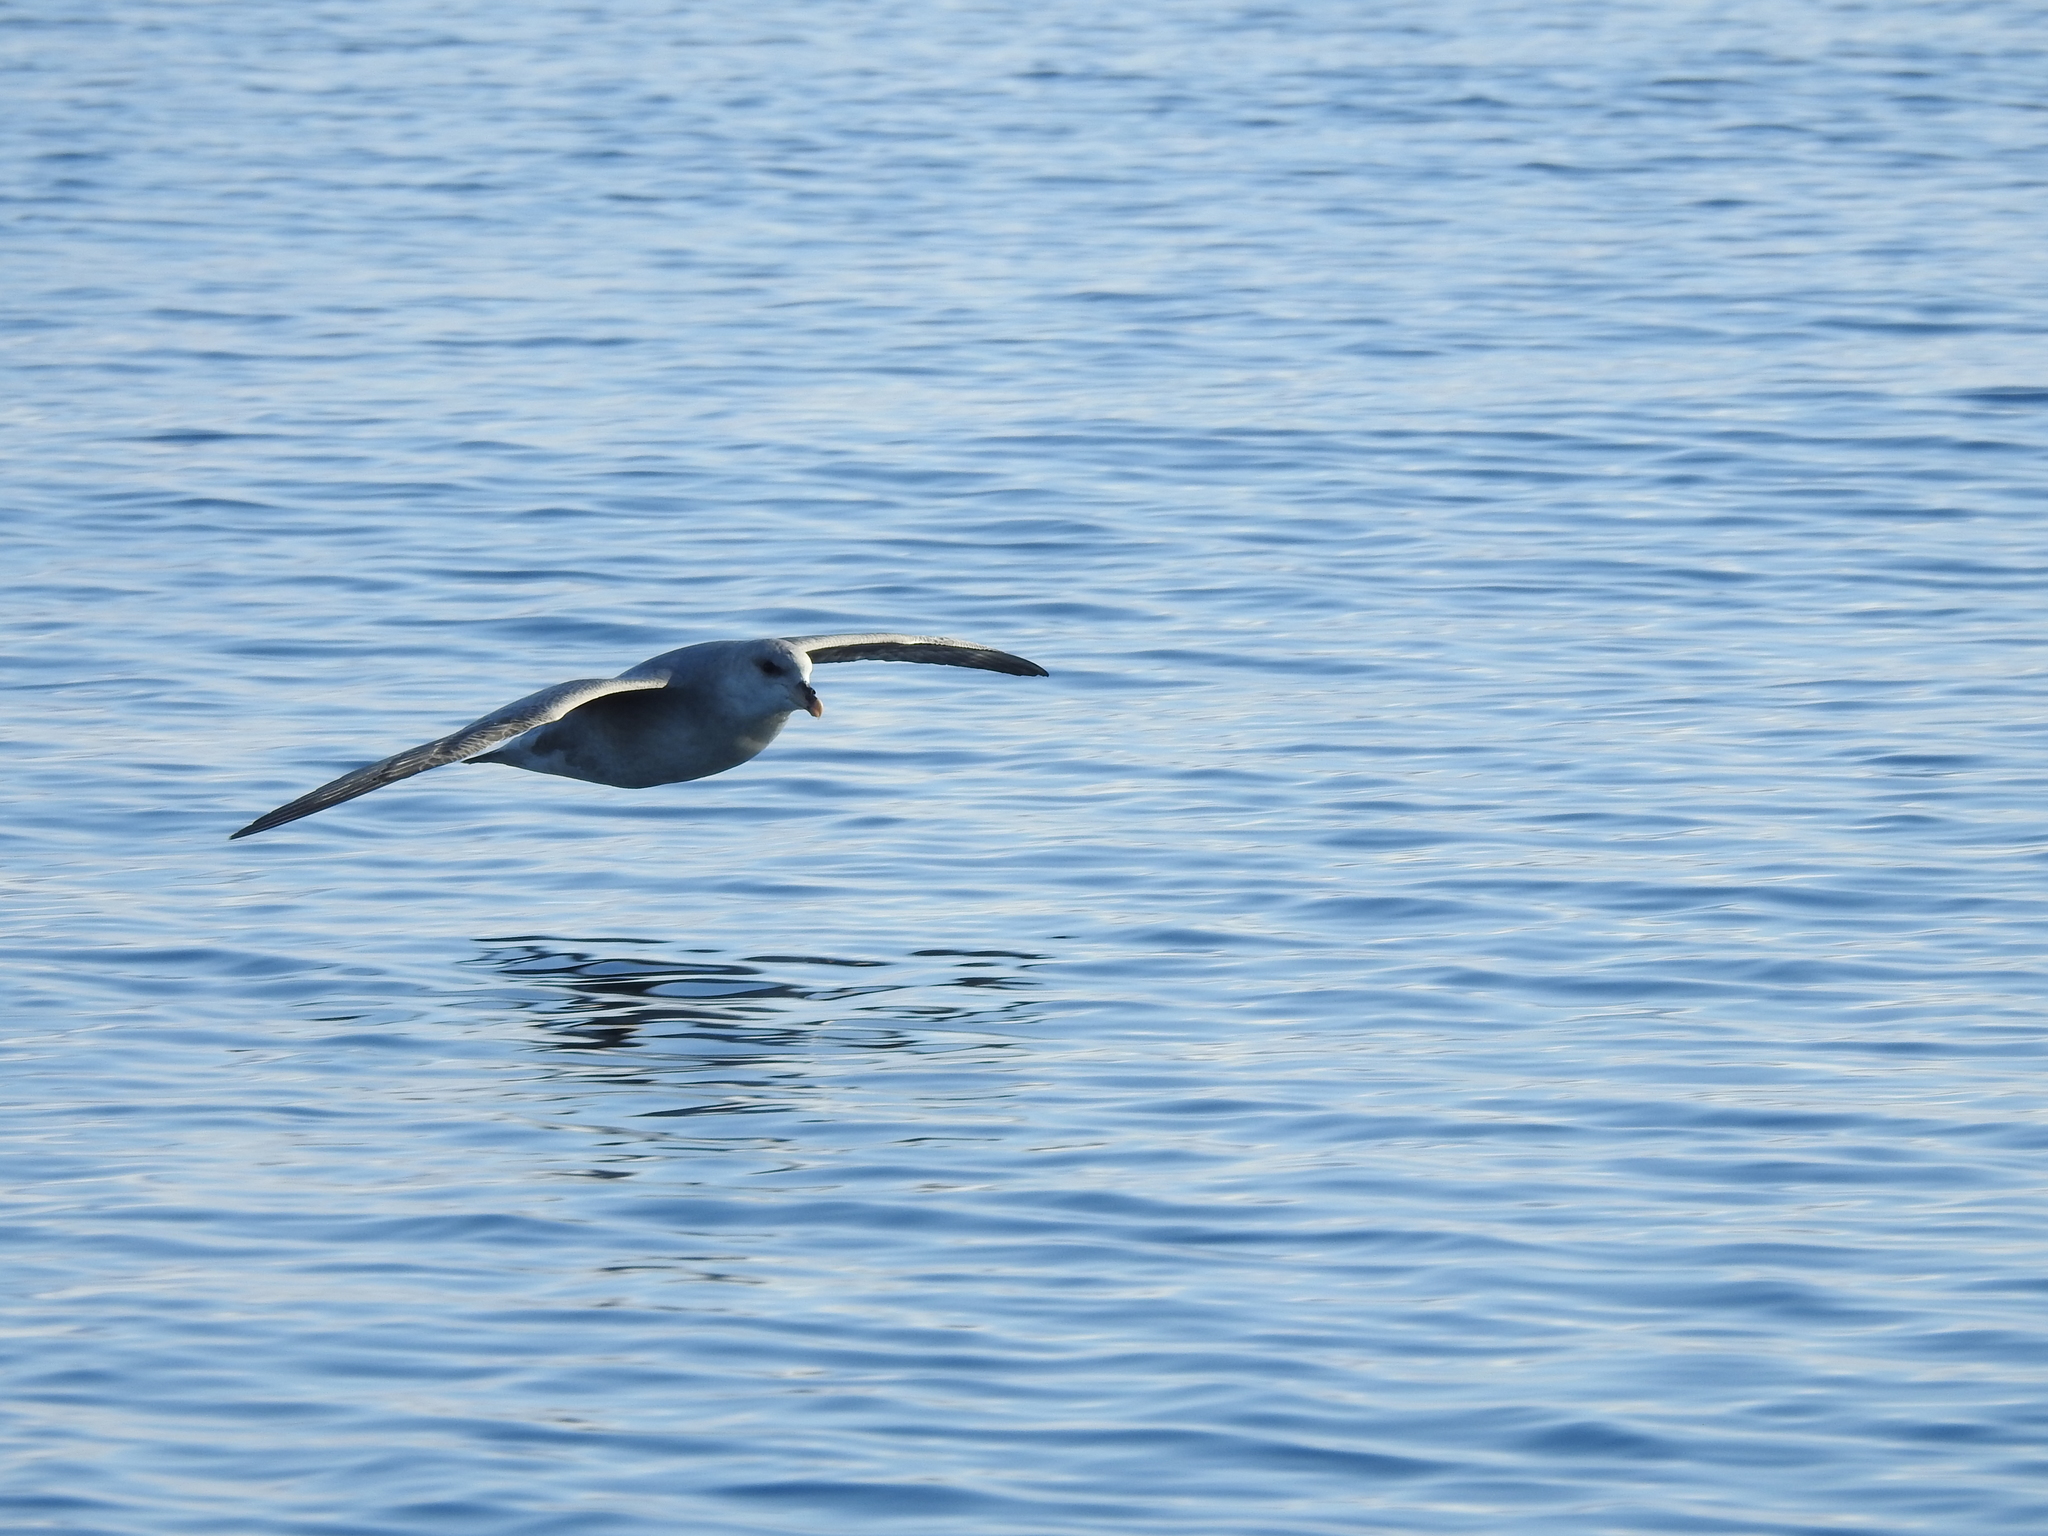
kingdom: Animalia
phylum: Chordata
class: Aves
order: Procellariiformes
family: Procellariidae
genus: Fulmarus
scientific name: Fulmarus glacialis
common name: Northern fulmar
